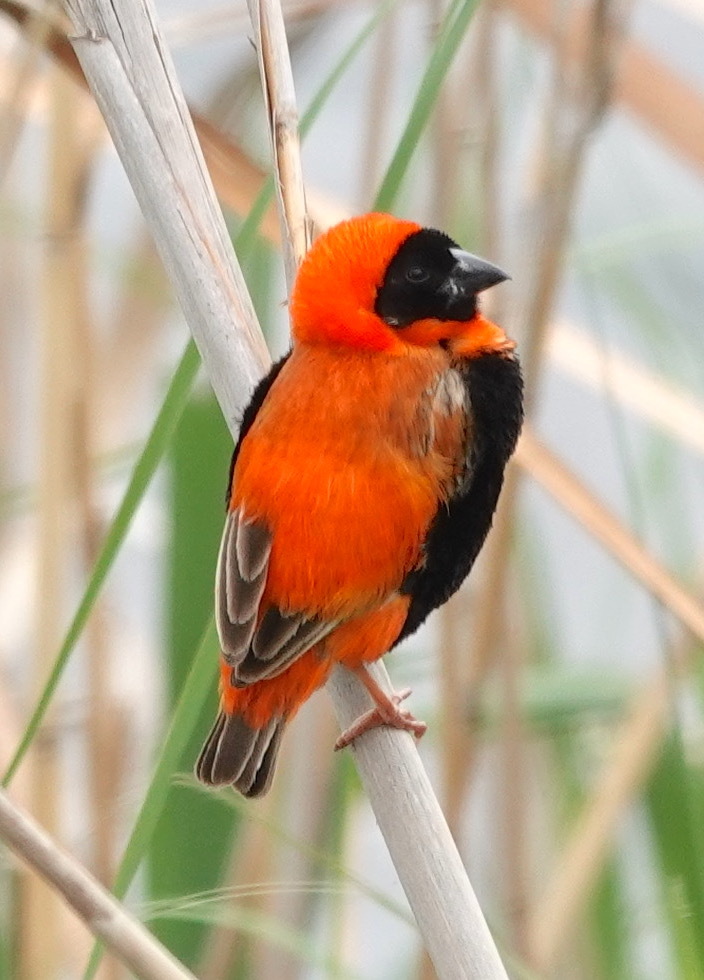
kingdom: Animalia
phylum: Chordata
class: Aves
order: Passeriformes
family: Ploceidae
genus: Euplectes
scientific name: Euplectes orix
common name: Southern red bishop
